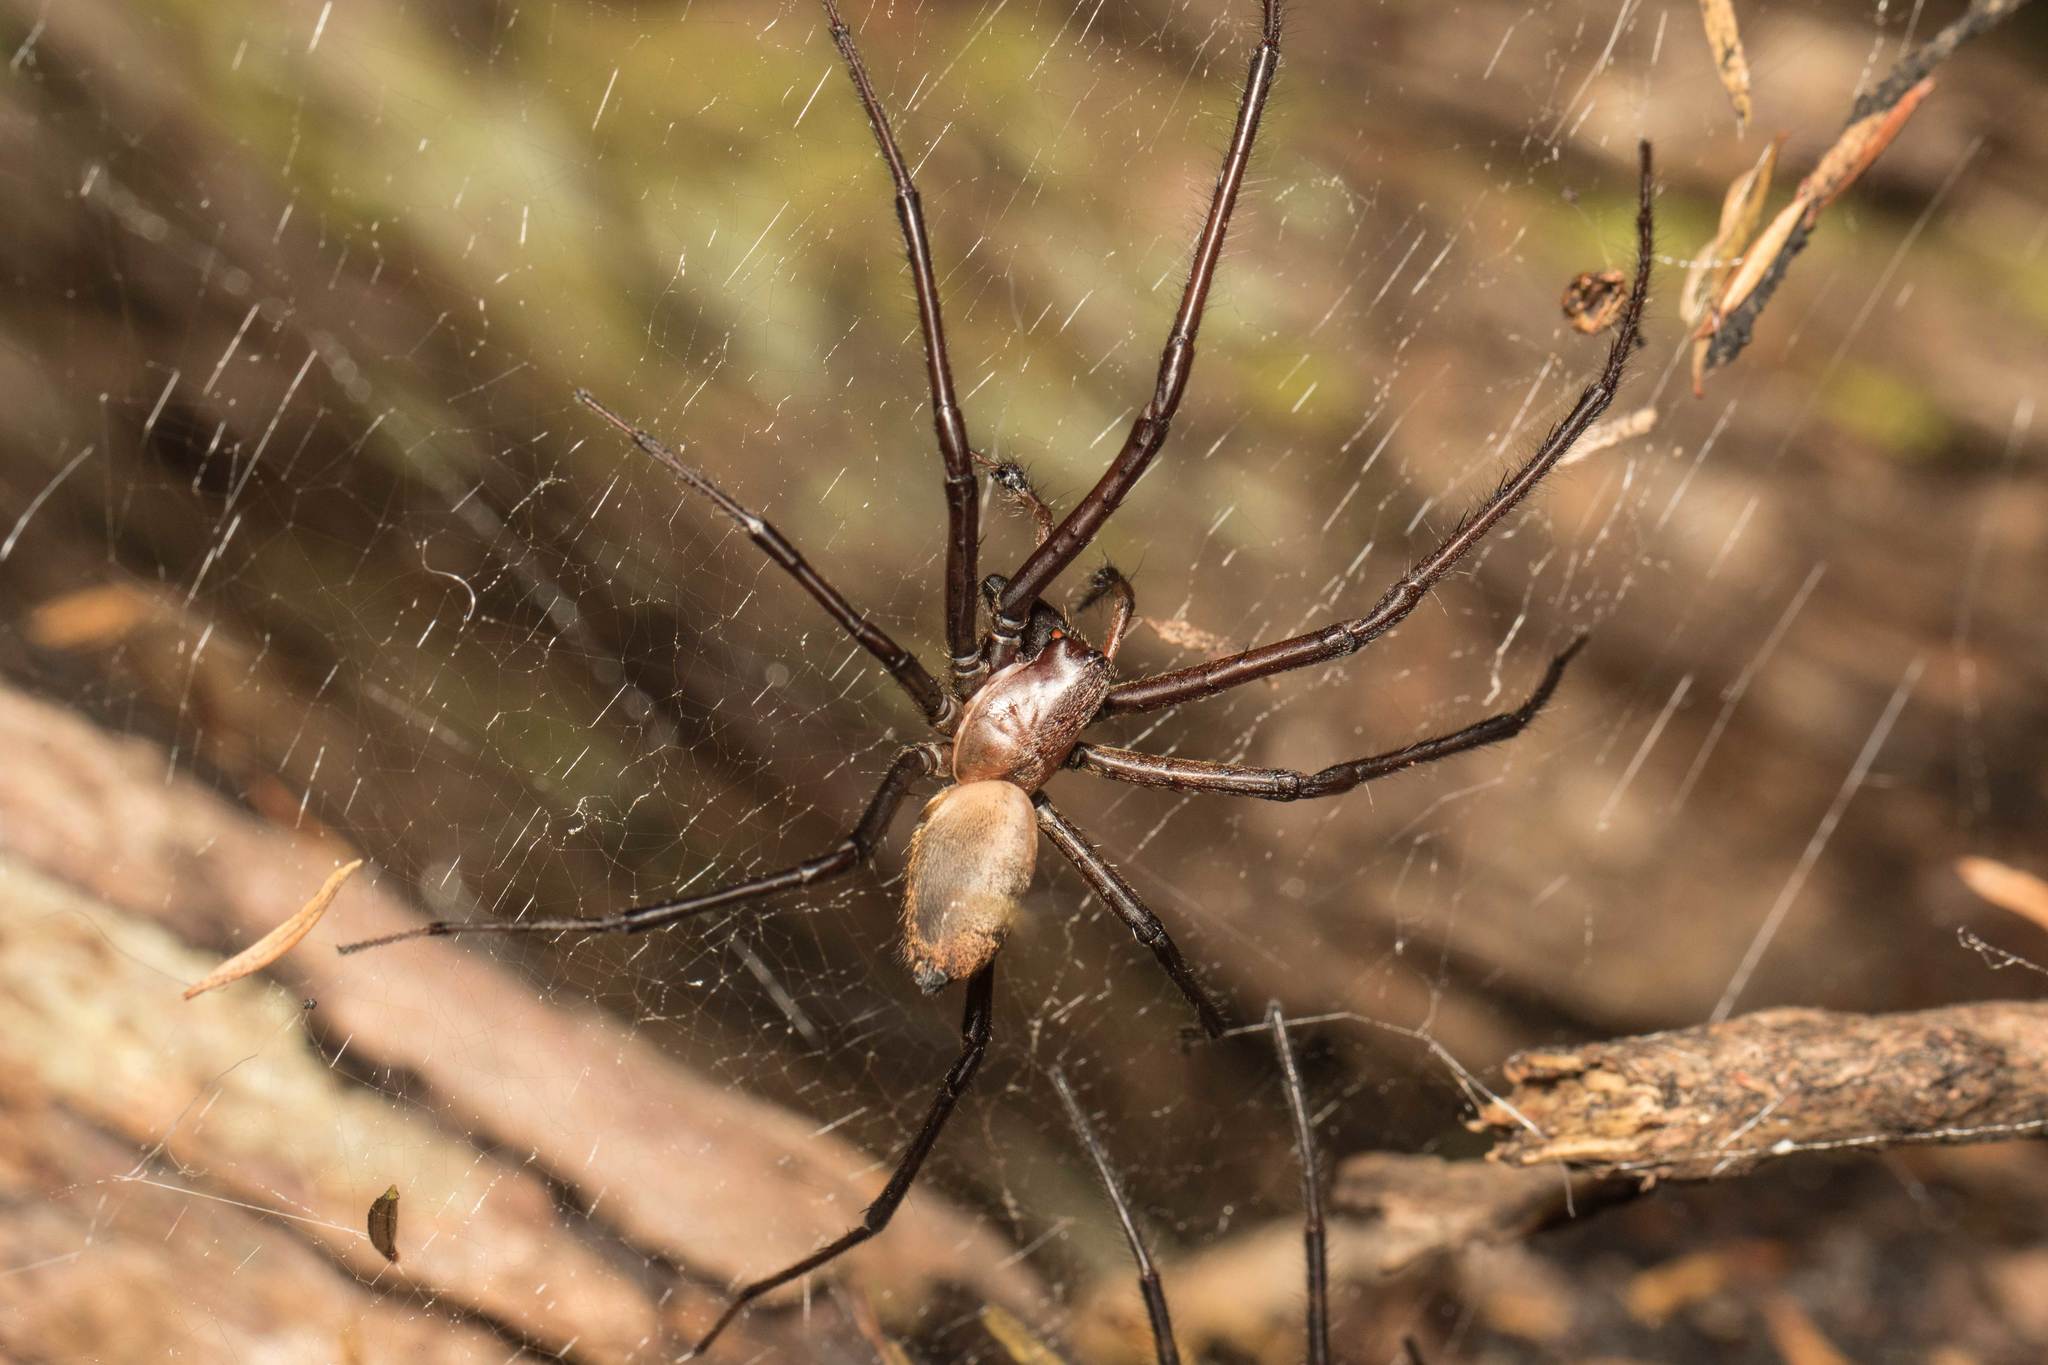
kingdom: Animalia
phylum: Arthropoda
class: Arachnida
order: Araneae
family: Desidae
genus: Cambridgea
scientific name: Cambridgea foliata
